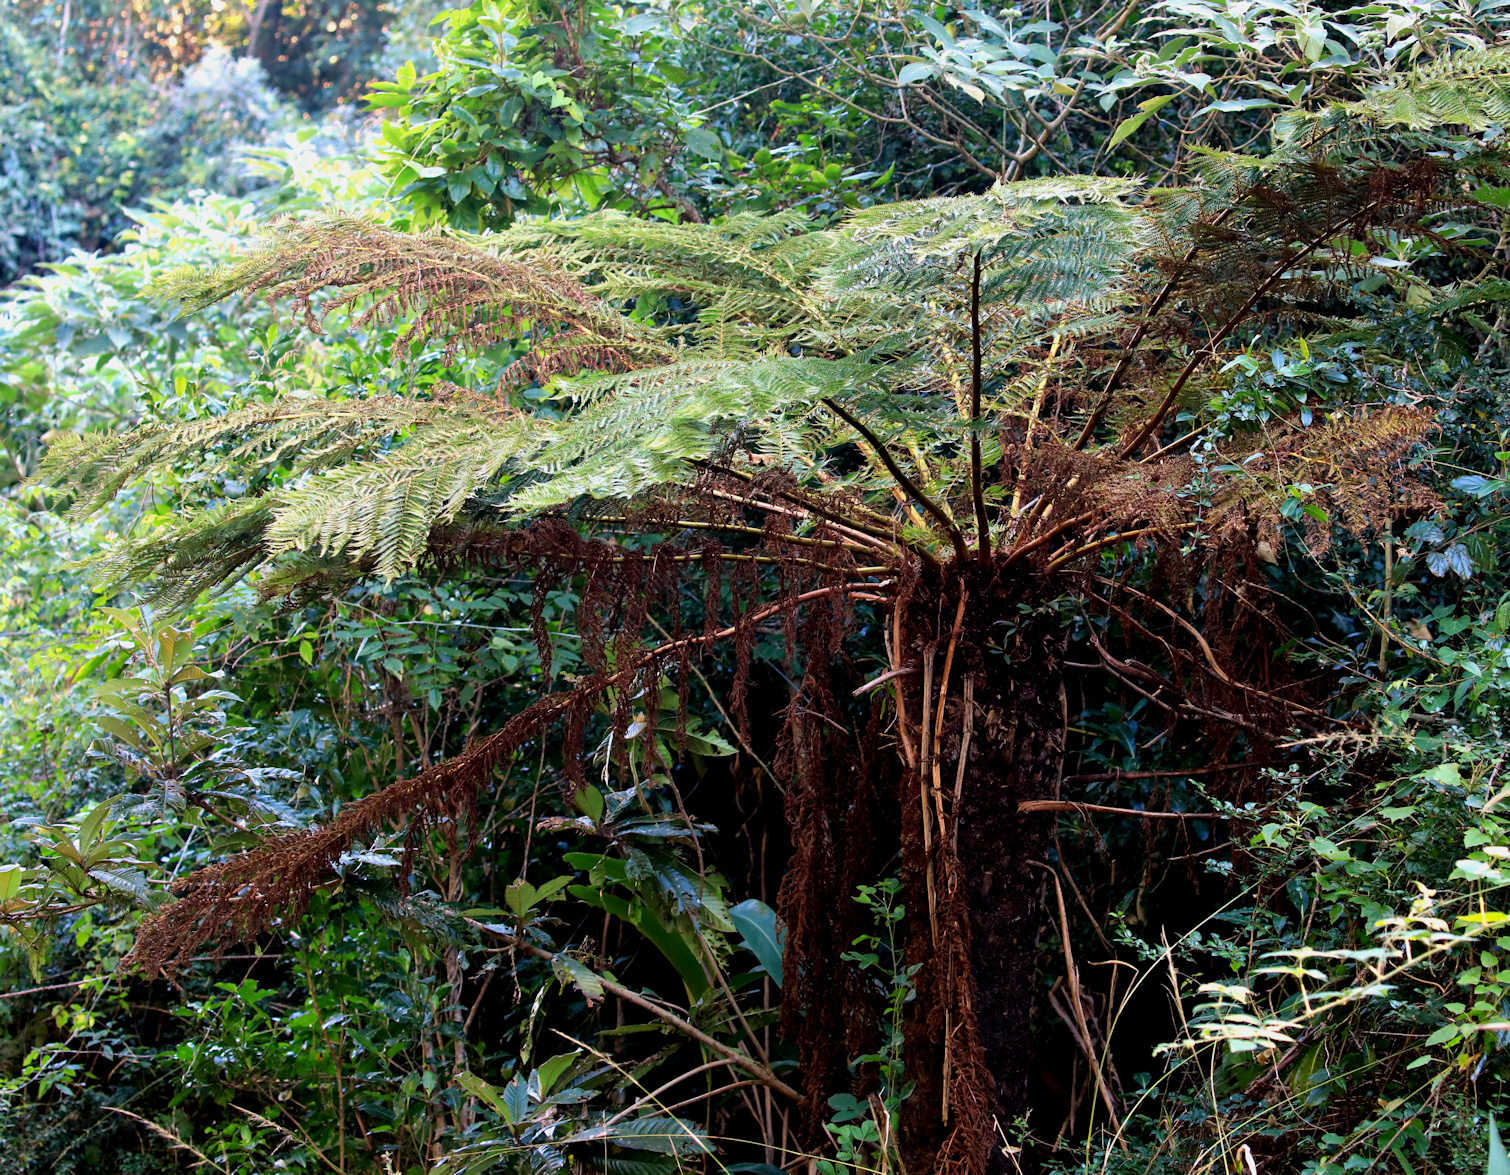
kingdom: Plantae
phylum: Tracheophyta
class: Polypodiopsida
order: Cyatheales
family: Cyatheaceae
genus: Alsophila
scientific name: Alsophila dregei
